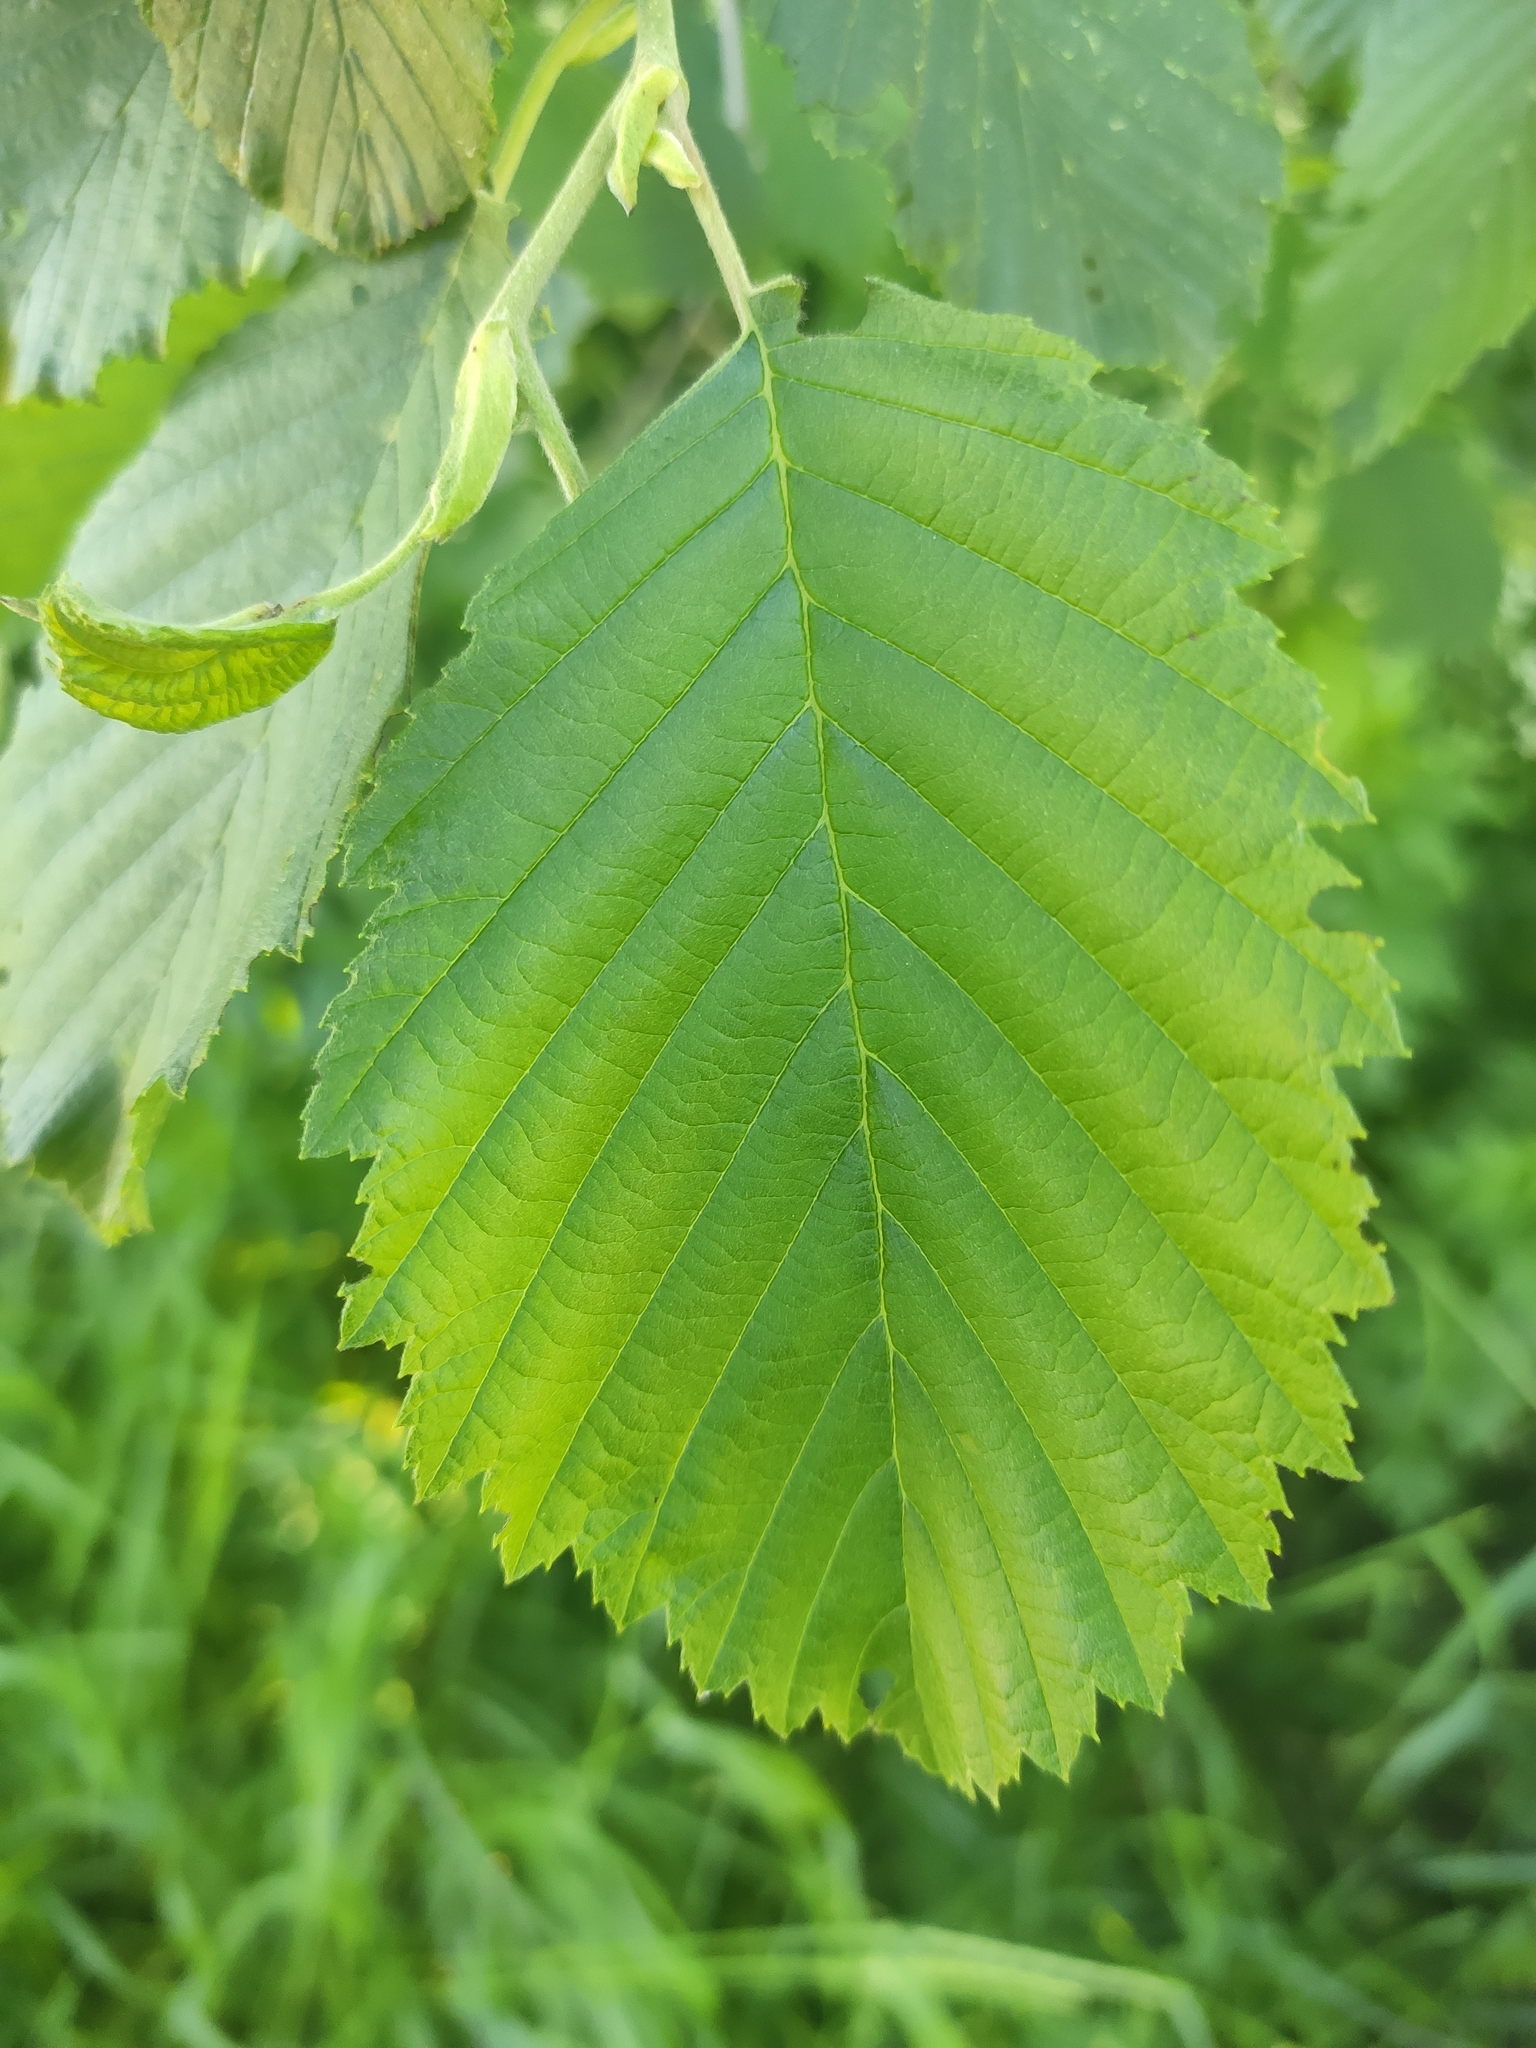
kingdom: Plantae
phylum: Tracheophyta
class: Magnoliopsida
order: Fagales
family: Betulaceae
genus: Alnus
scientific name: Alnus glutinosa
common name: Black alder
